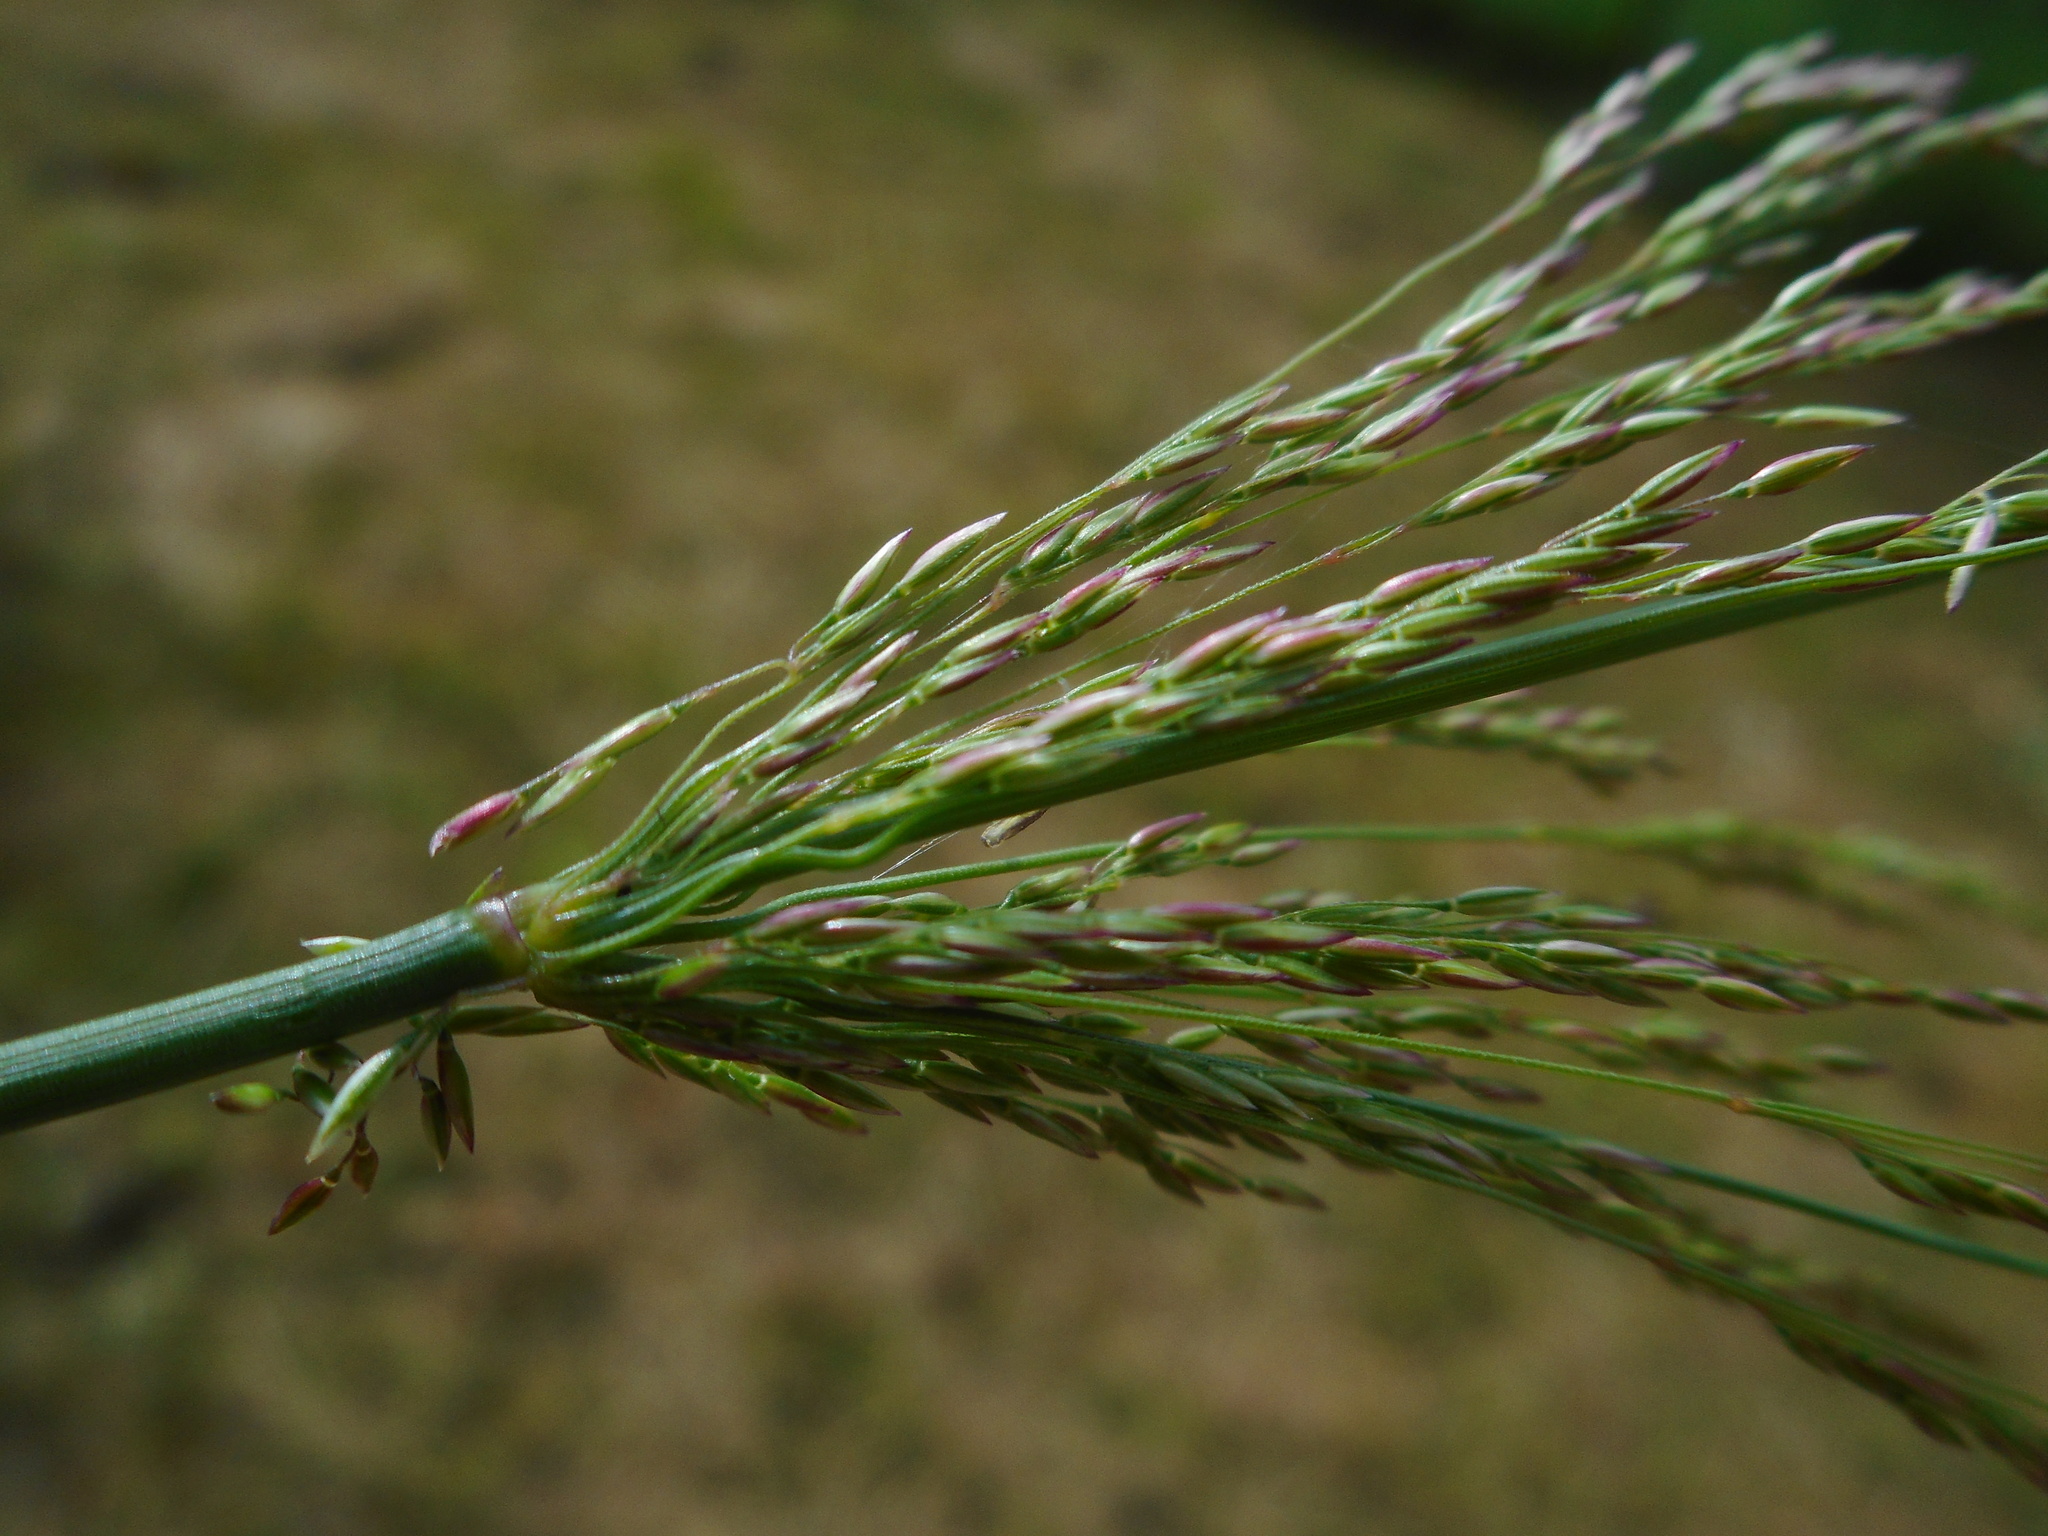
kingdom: Plantae
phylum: Tracheophyta
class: Liliopsida
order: Poales
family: Poaceae
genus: Agrostis
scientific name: Agrostis gigantea
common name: Black bent
